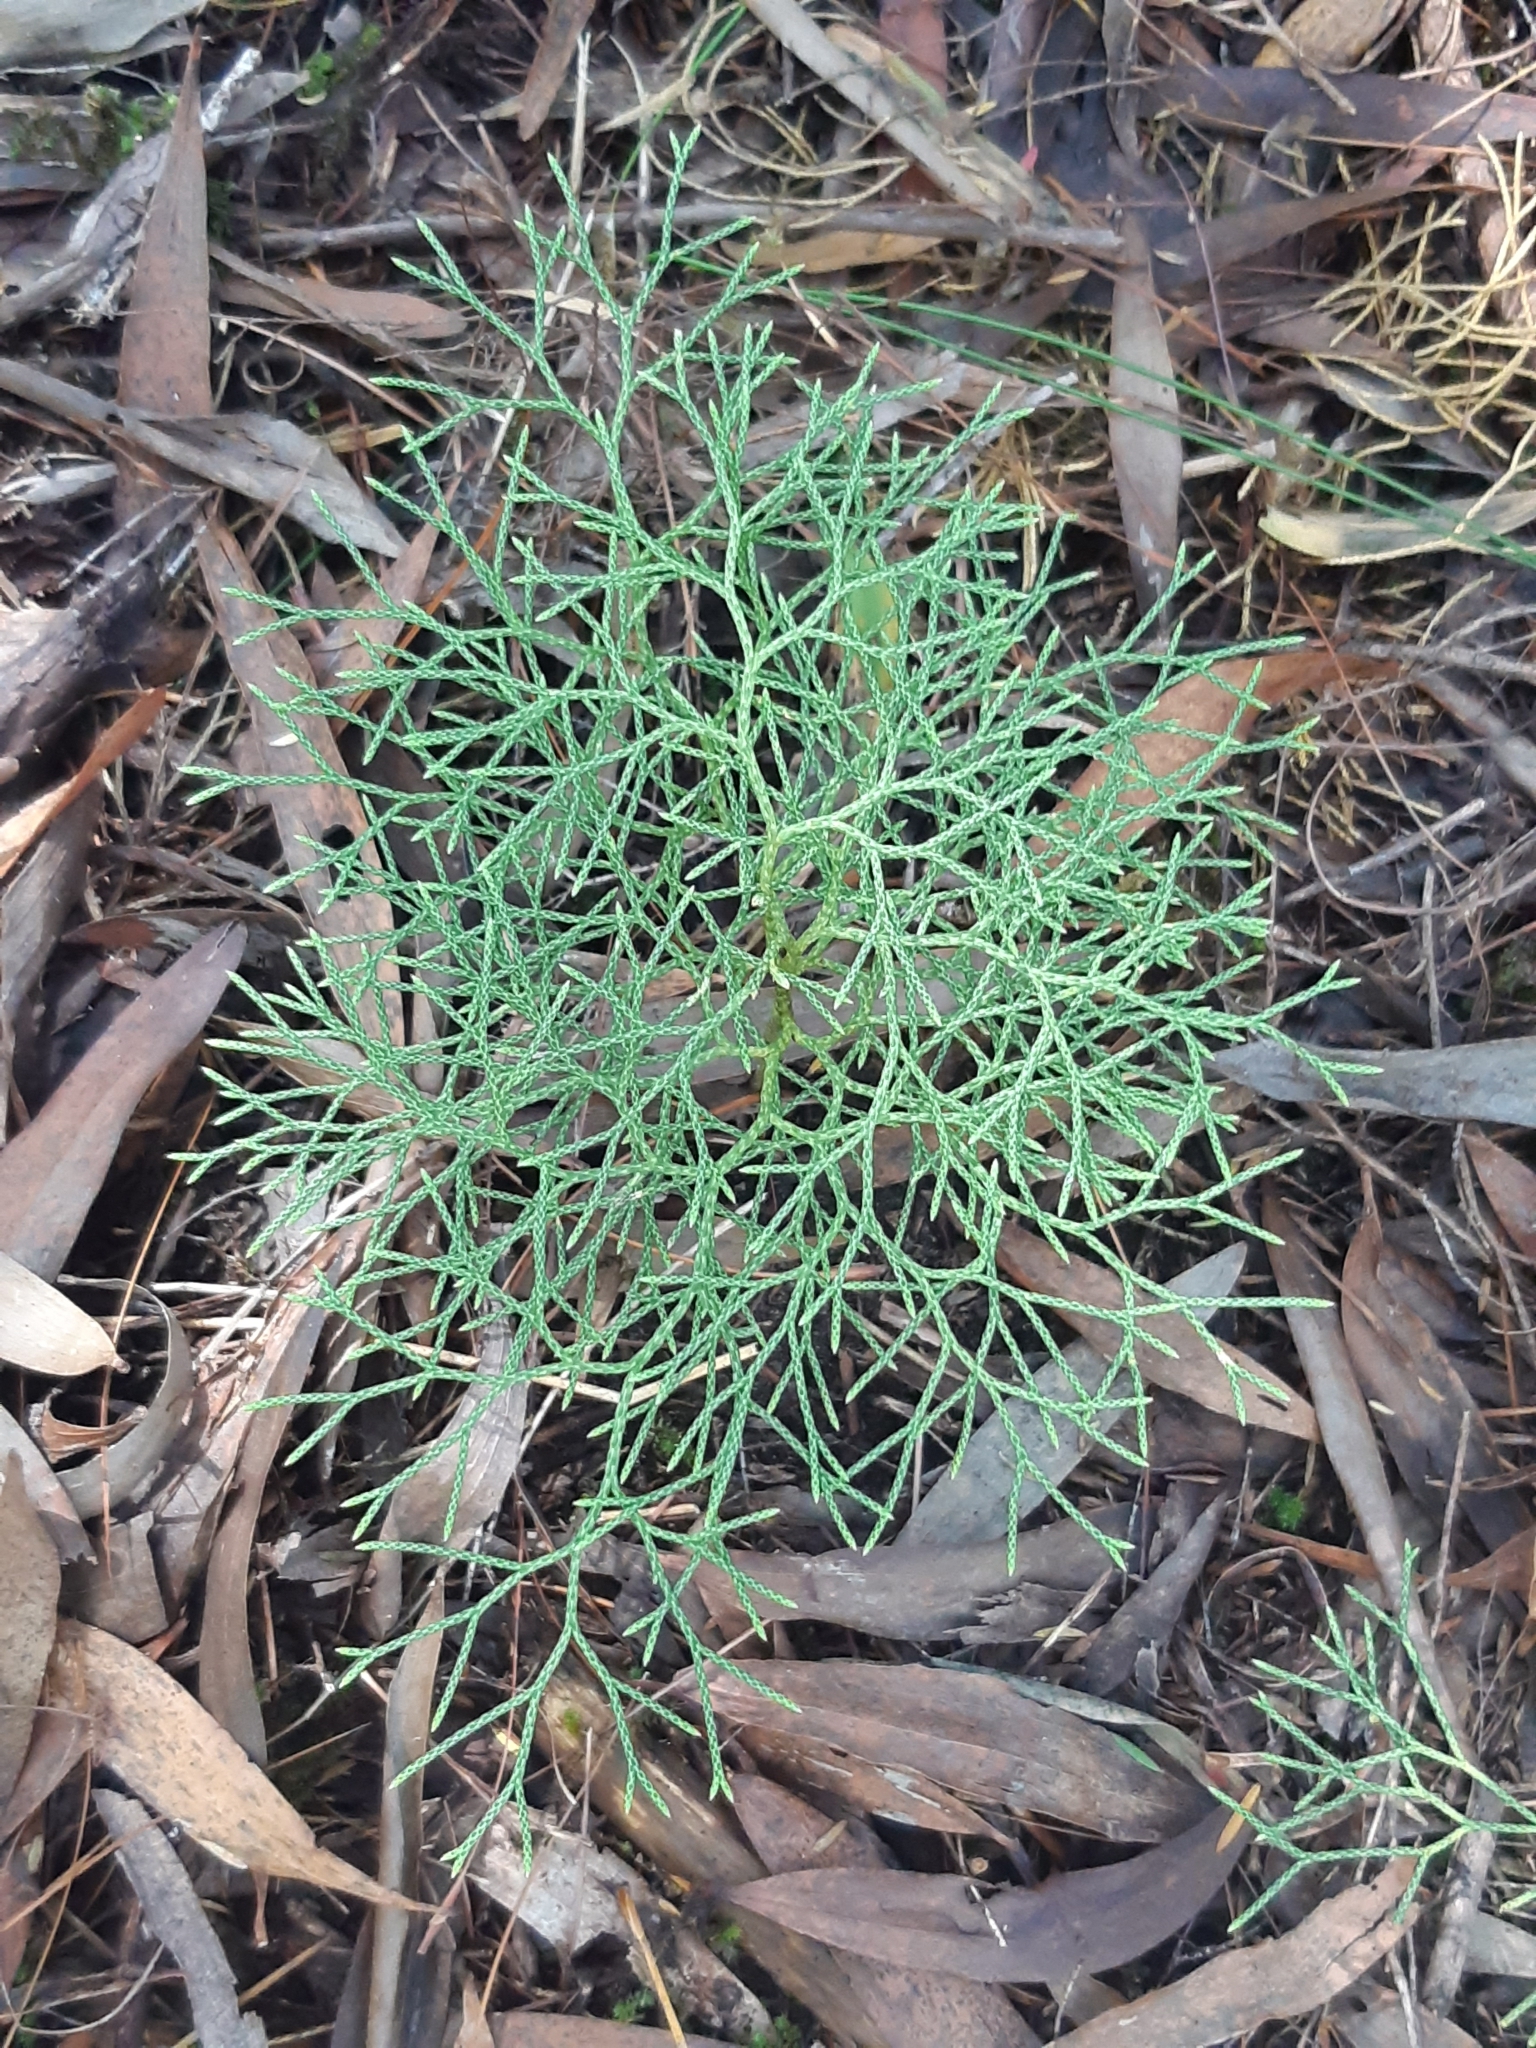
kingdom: Plantae
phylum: Tracheophyta
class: Lycopodiopsida
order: Lycopodiales
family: Lycopodiaceae
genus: Pseudolycopodium
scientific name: Pseudolycopodium densum
